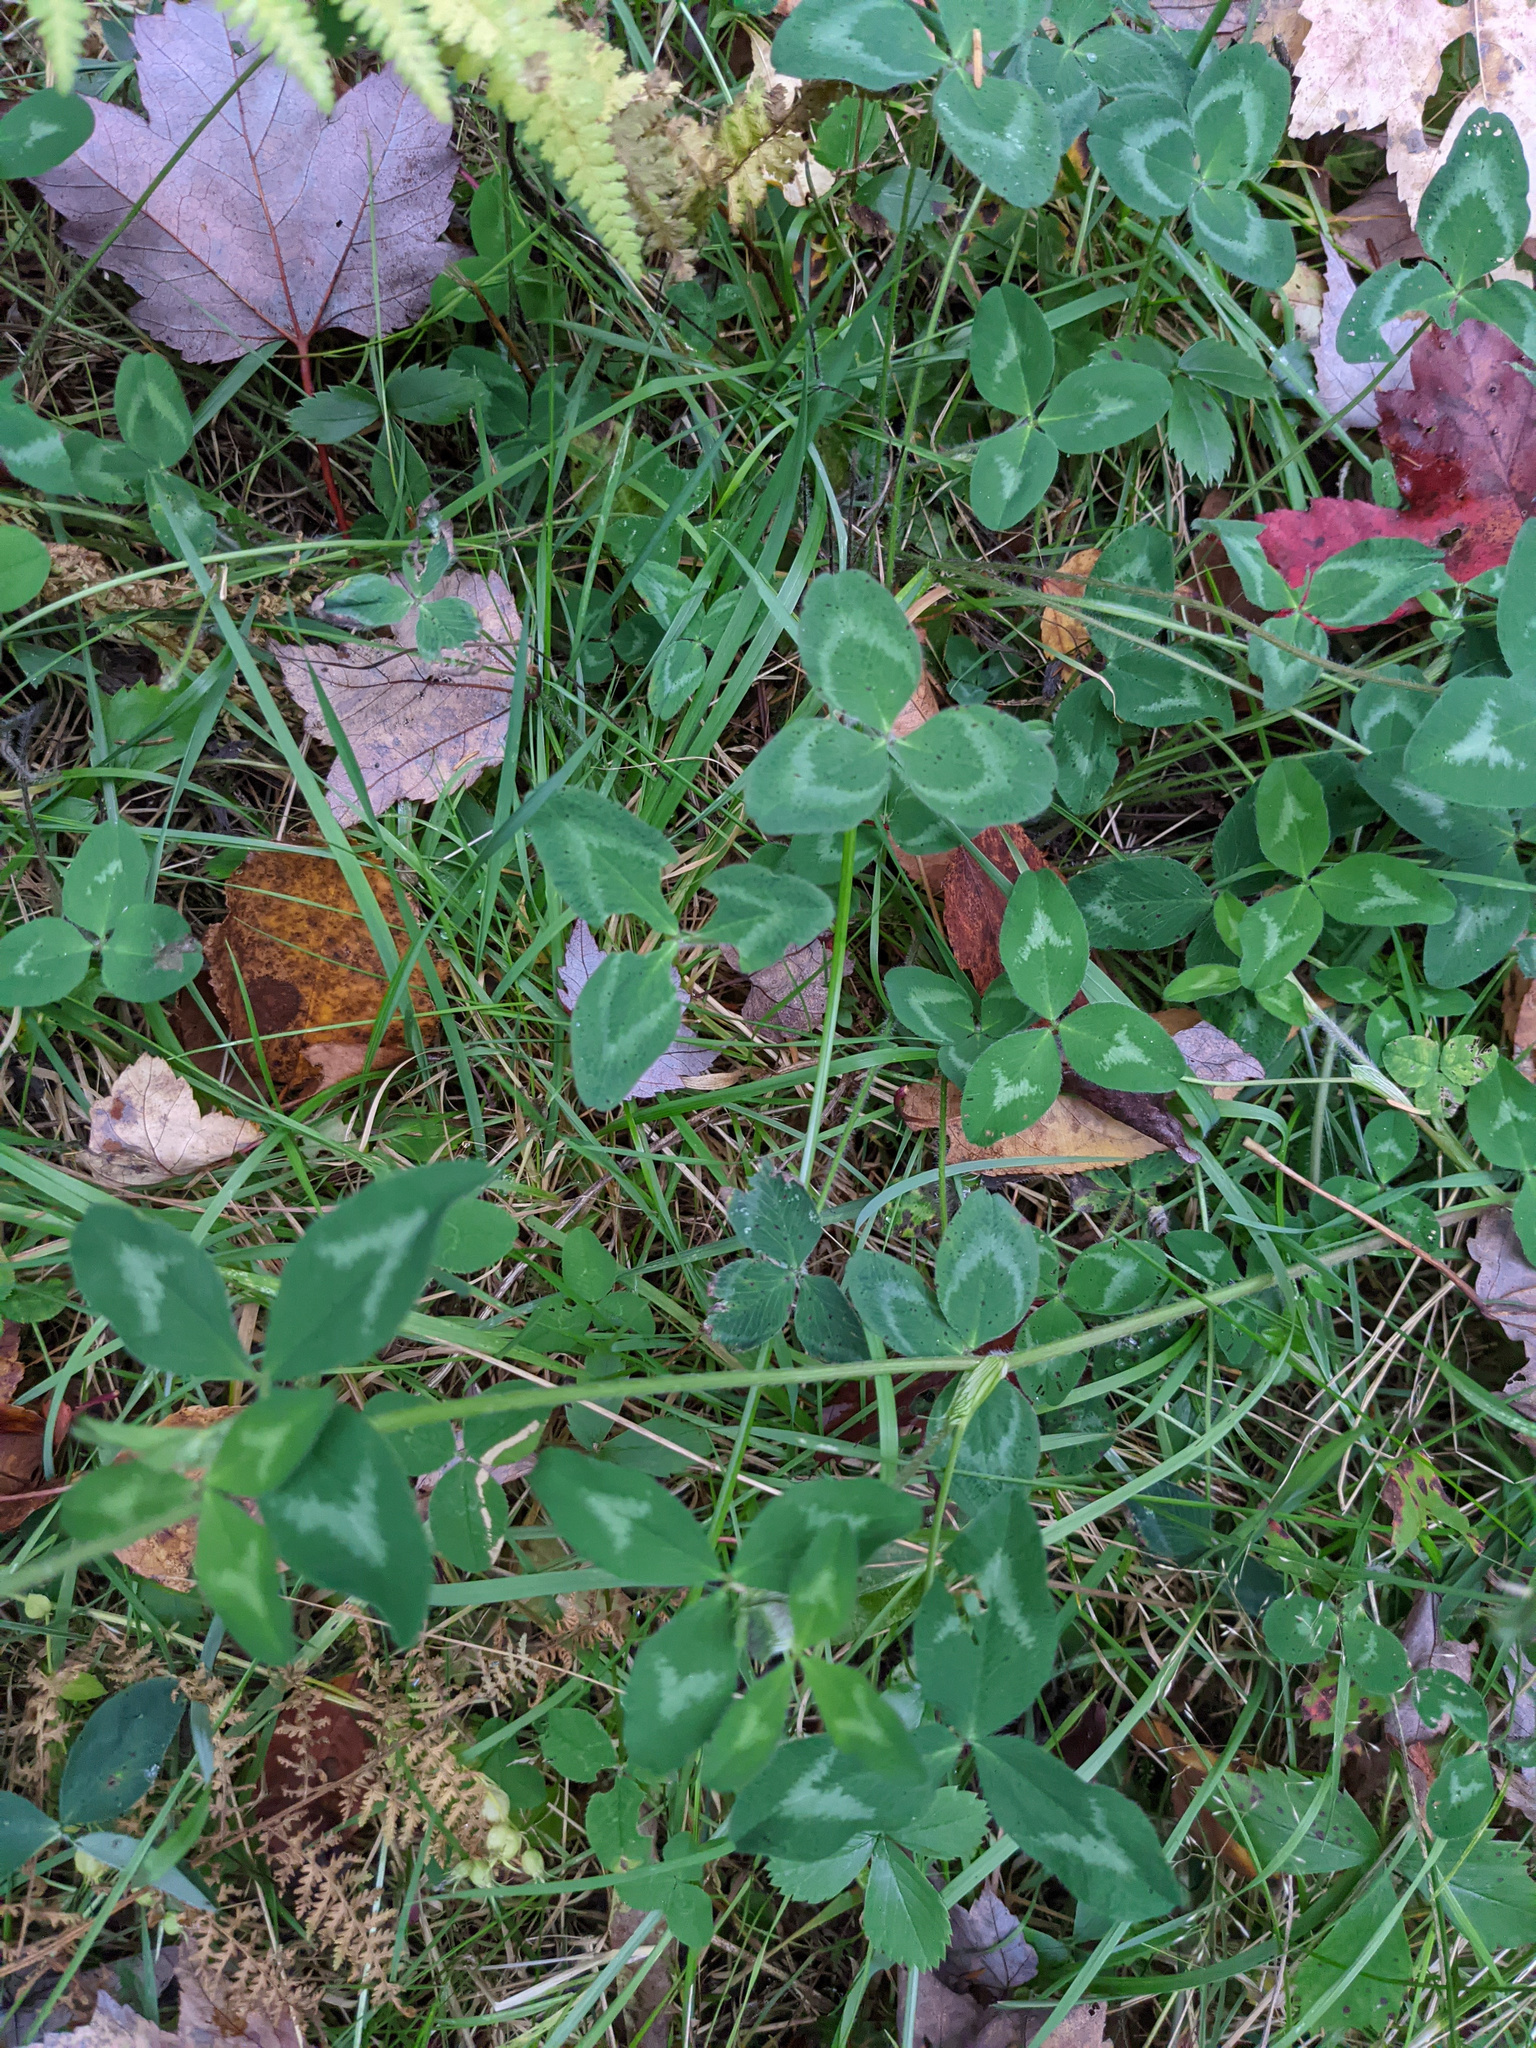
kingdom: Plantae
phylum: Tracheophyta
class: Magnoliopsida
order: Fabales
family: Fabaceae
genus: Trifolium
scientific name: Trifolium pratense
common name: Red clover
